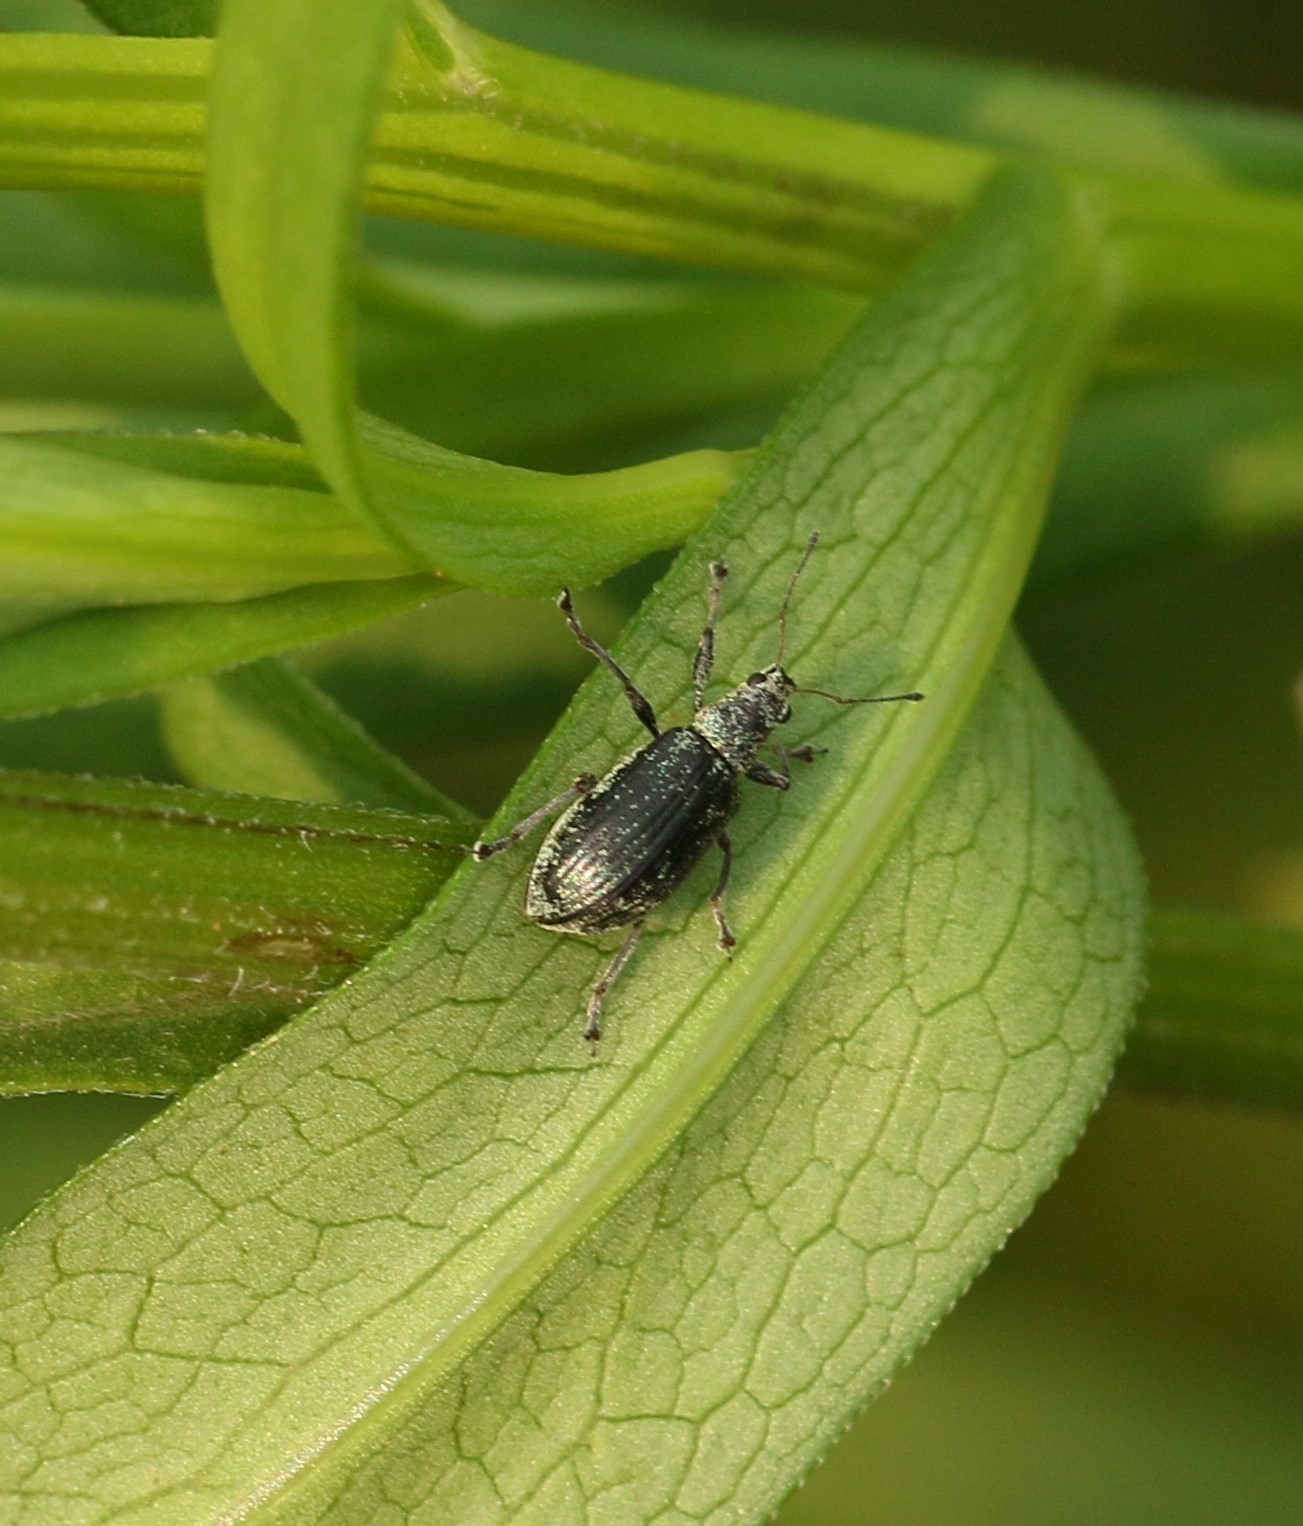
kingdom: Animalia
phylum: Arthropoda
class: Insecta
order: Coleoptera
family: Curculionidae
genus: Polydrusus
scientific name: Polydrusus cervinus
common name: Weevil
